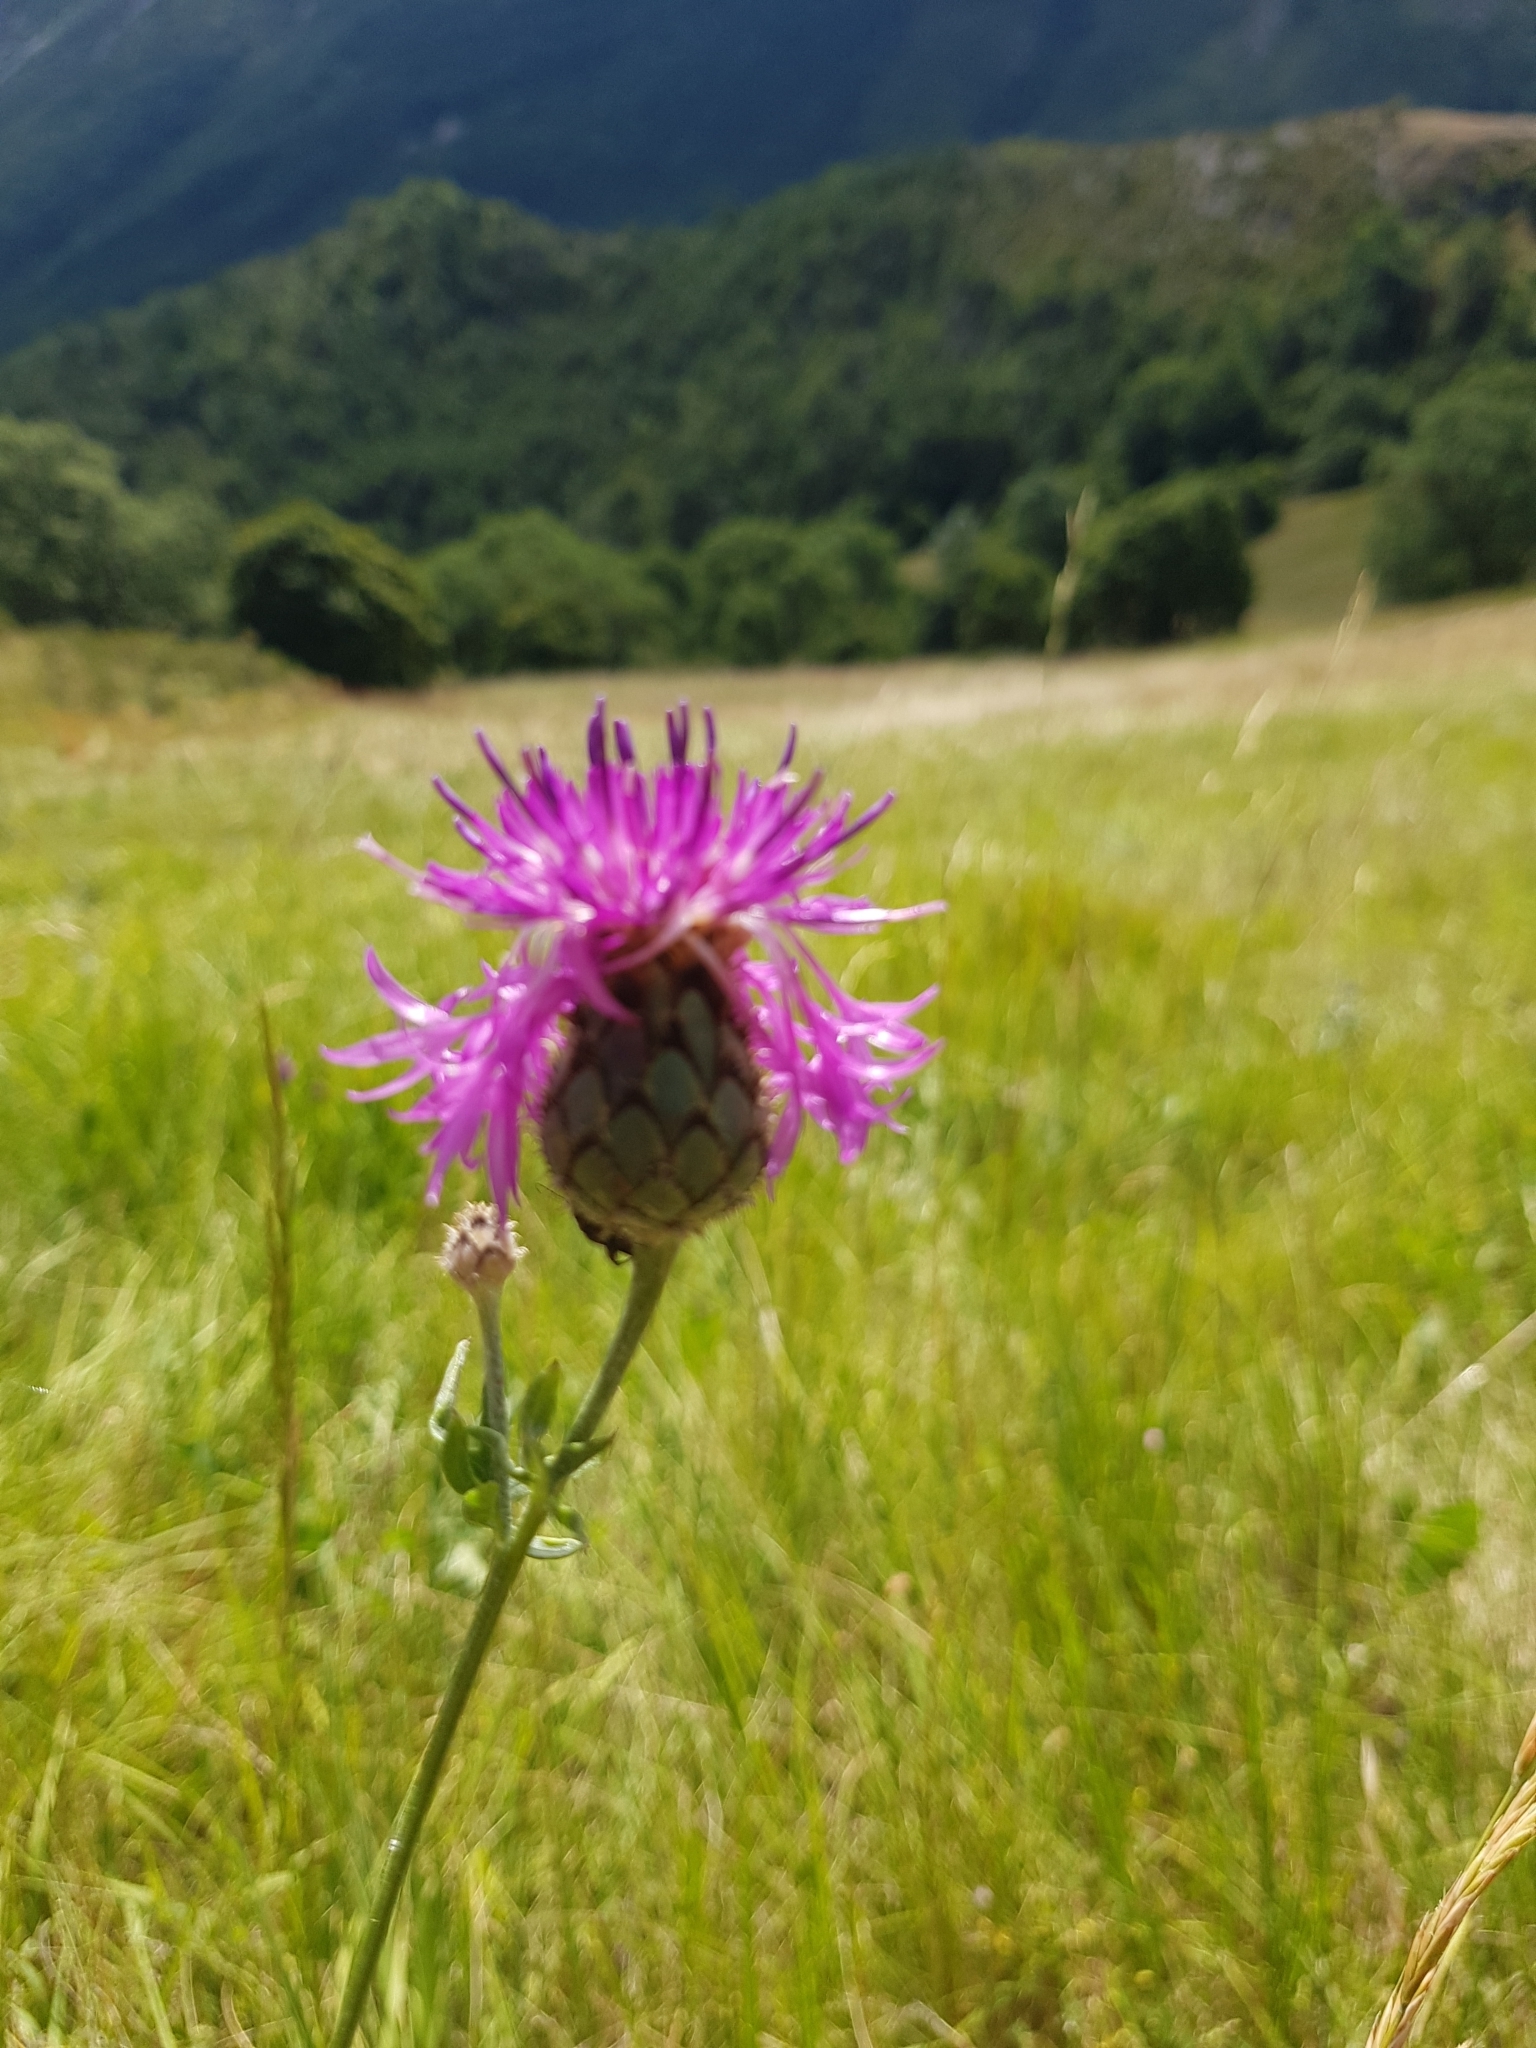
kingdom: Plantae
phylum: Tracheophyta
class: Magnoliopsida
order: Asterales
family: Asteraceae
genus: Centaurea
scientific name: Centaurea scabiosa
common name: Greater knapweed
